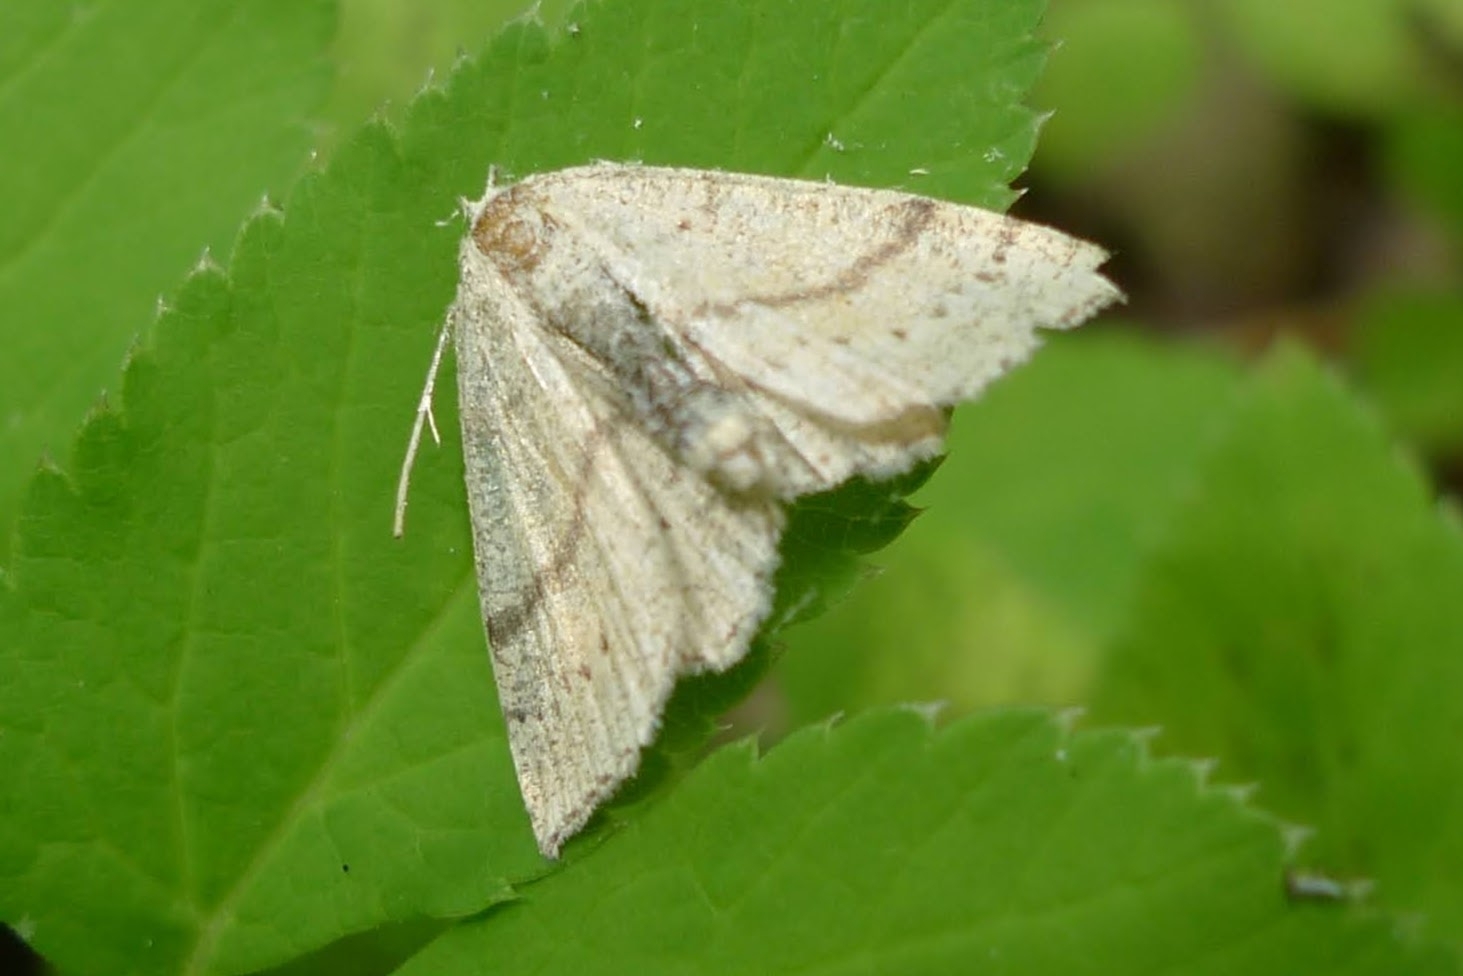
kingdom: Animalia
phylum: Arthropoda
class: Insecta
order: Lepidoptera
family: Geometridae
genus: Cyclophora
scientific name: Cyclophora punctaria
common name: Maiden's blush
